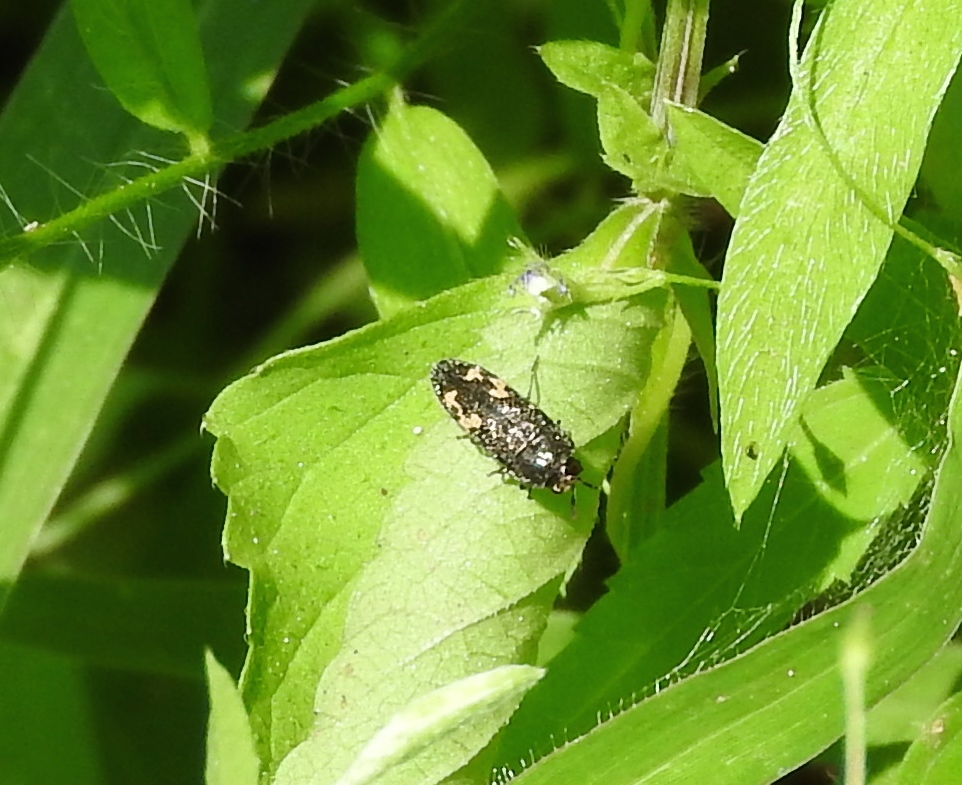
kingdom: Animalia
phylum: Arthropoda
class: Insecta
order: Coleoptera
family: Buprestidae
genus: Acmaeodera
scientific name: Acmaeodera
